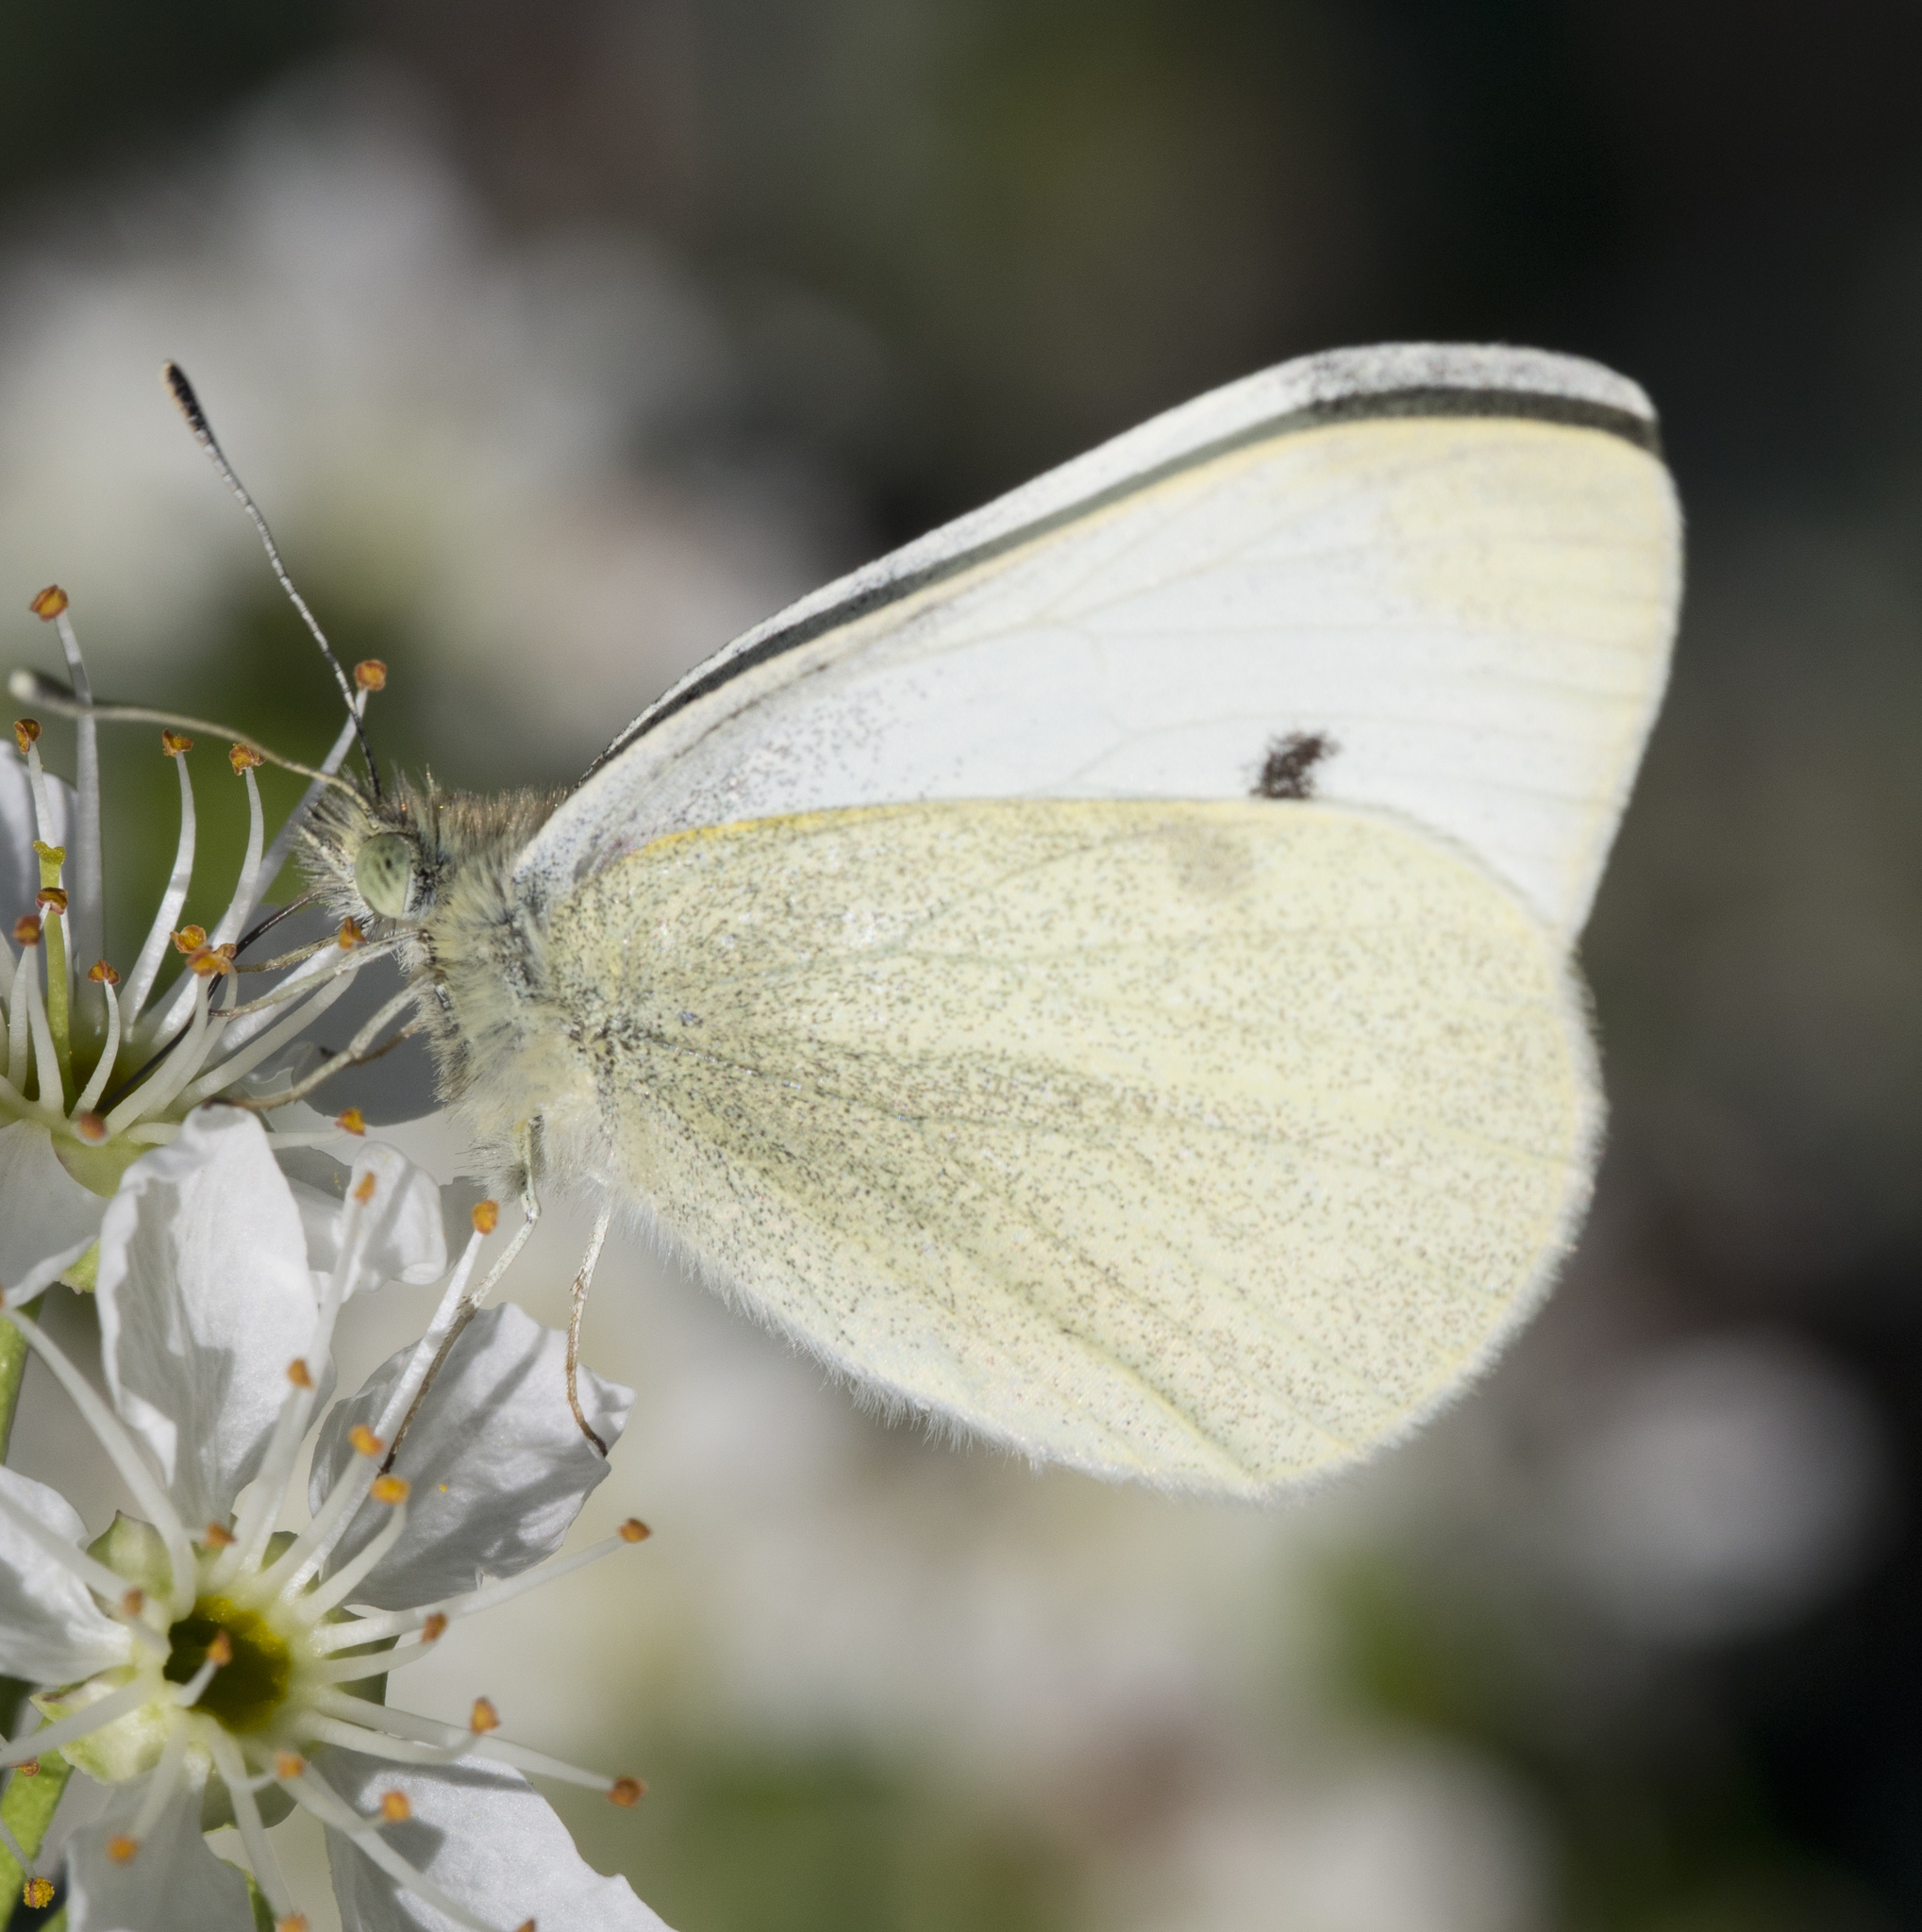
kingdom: Animalia
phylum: Arthropoda
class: Insecta
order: Lepidoptera
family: Pieridae
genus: Pieris
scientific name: Pieris rapae
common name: Small white
